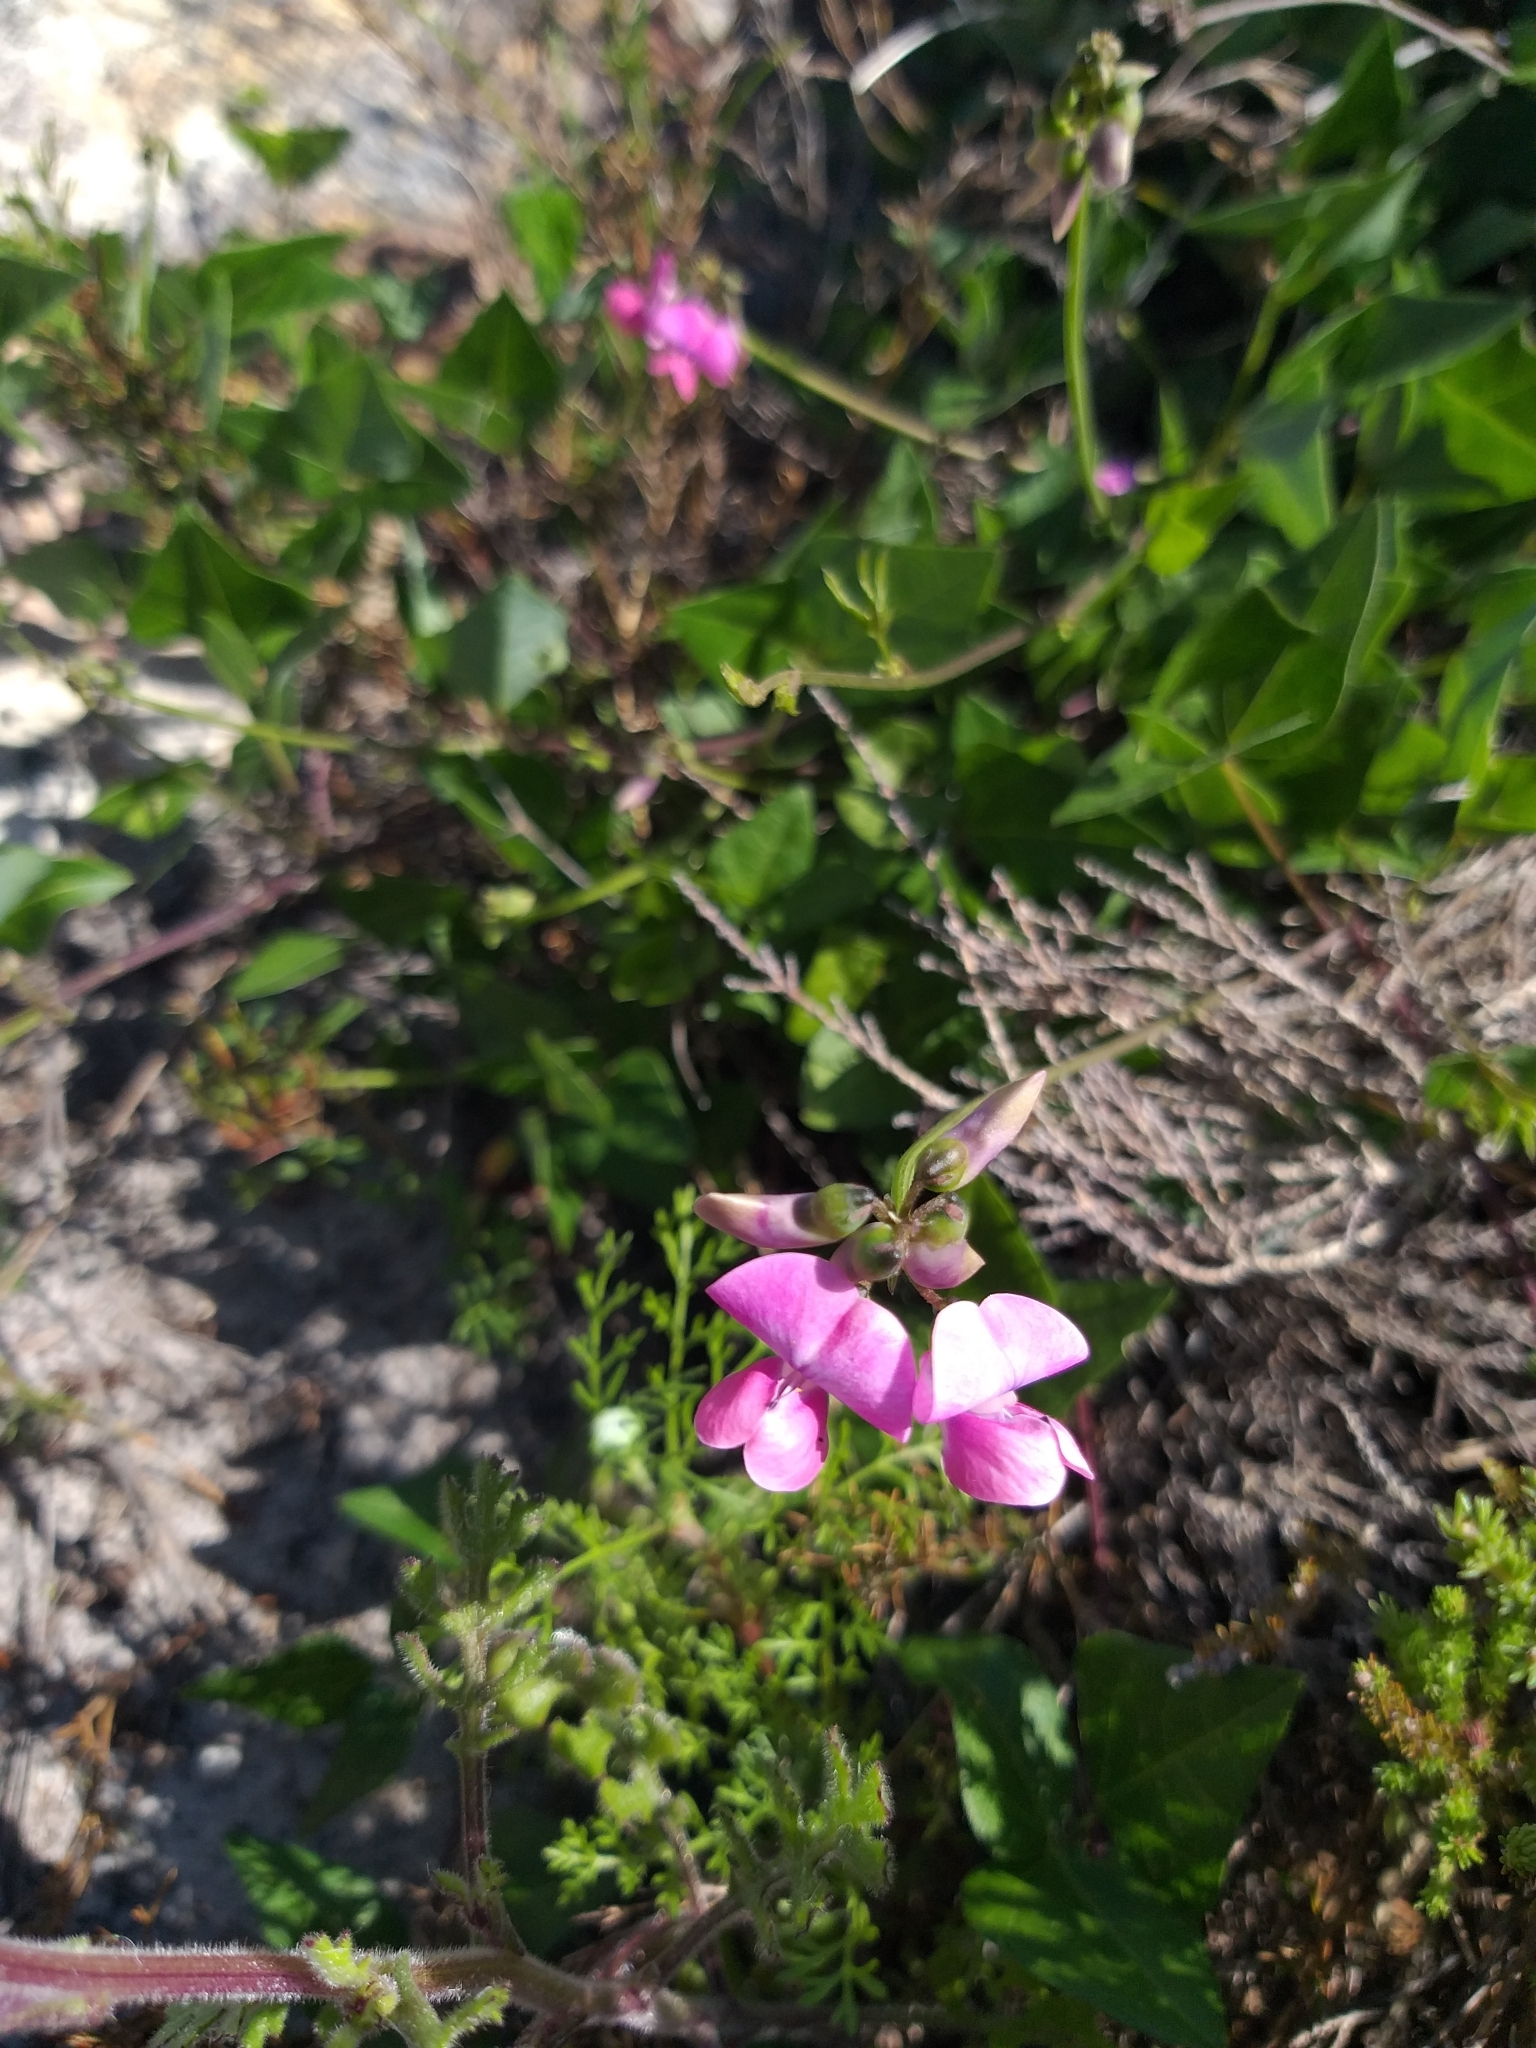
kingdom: Plantae
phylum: Tracheophyta
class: Magnoliopsida
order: Fabales
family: Fabaceae
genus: Dipogon
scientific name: Dipogon lignosus
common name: Okie bean
